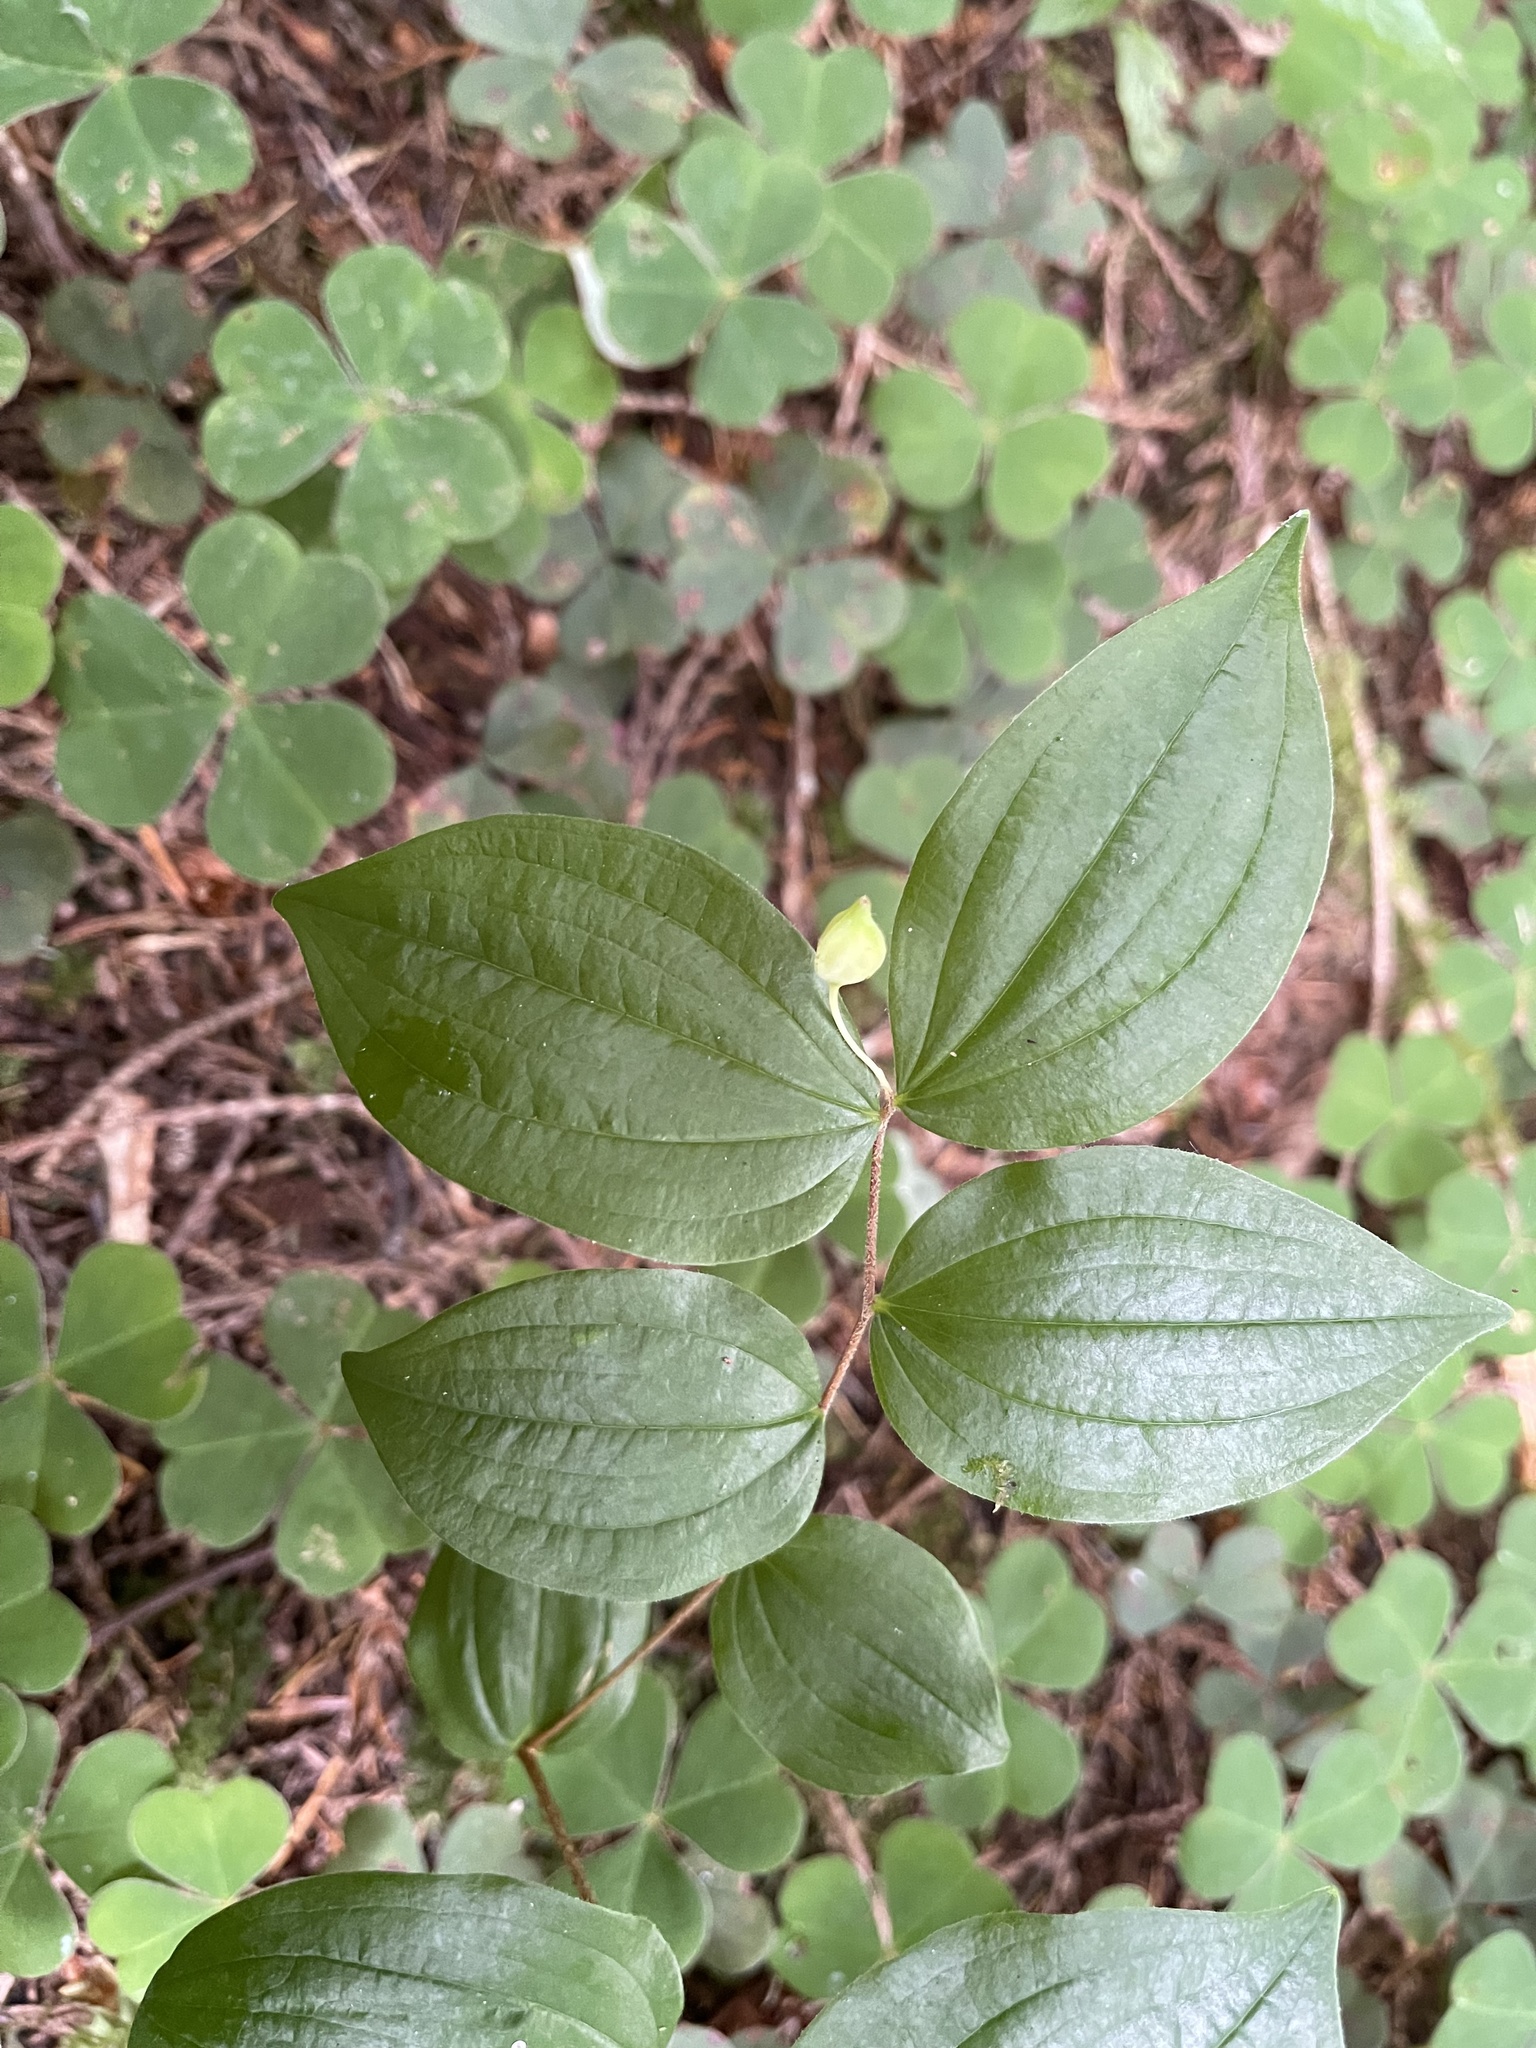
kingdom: Plantae
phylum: Tracheophyta
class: Liliopsida
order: Liliales
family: Liliaceae
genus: Prosartes
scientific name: Prosartes smithii
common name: Fairy-lantern
